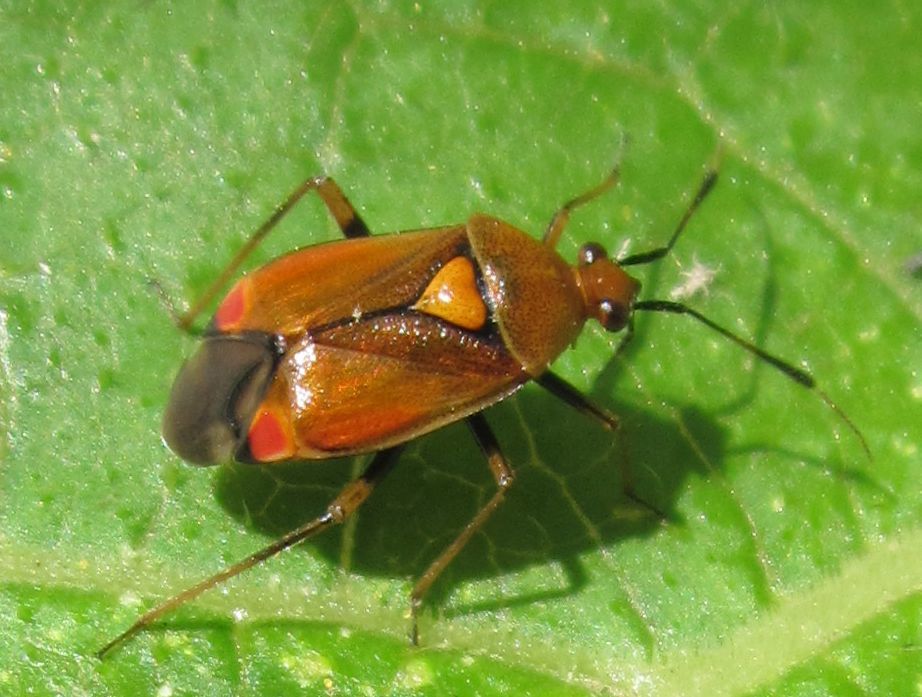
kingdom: Animalia
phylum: Arthropoda
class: Insecta
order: Hemiptera
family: Miridae
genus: Deraeocoris
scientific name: Deraeocoris ruber
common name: Plant bug
